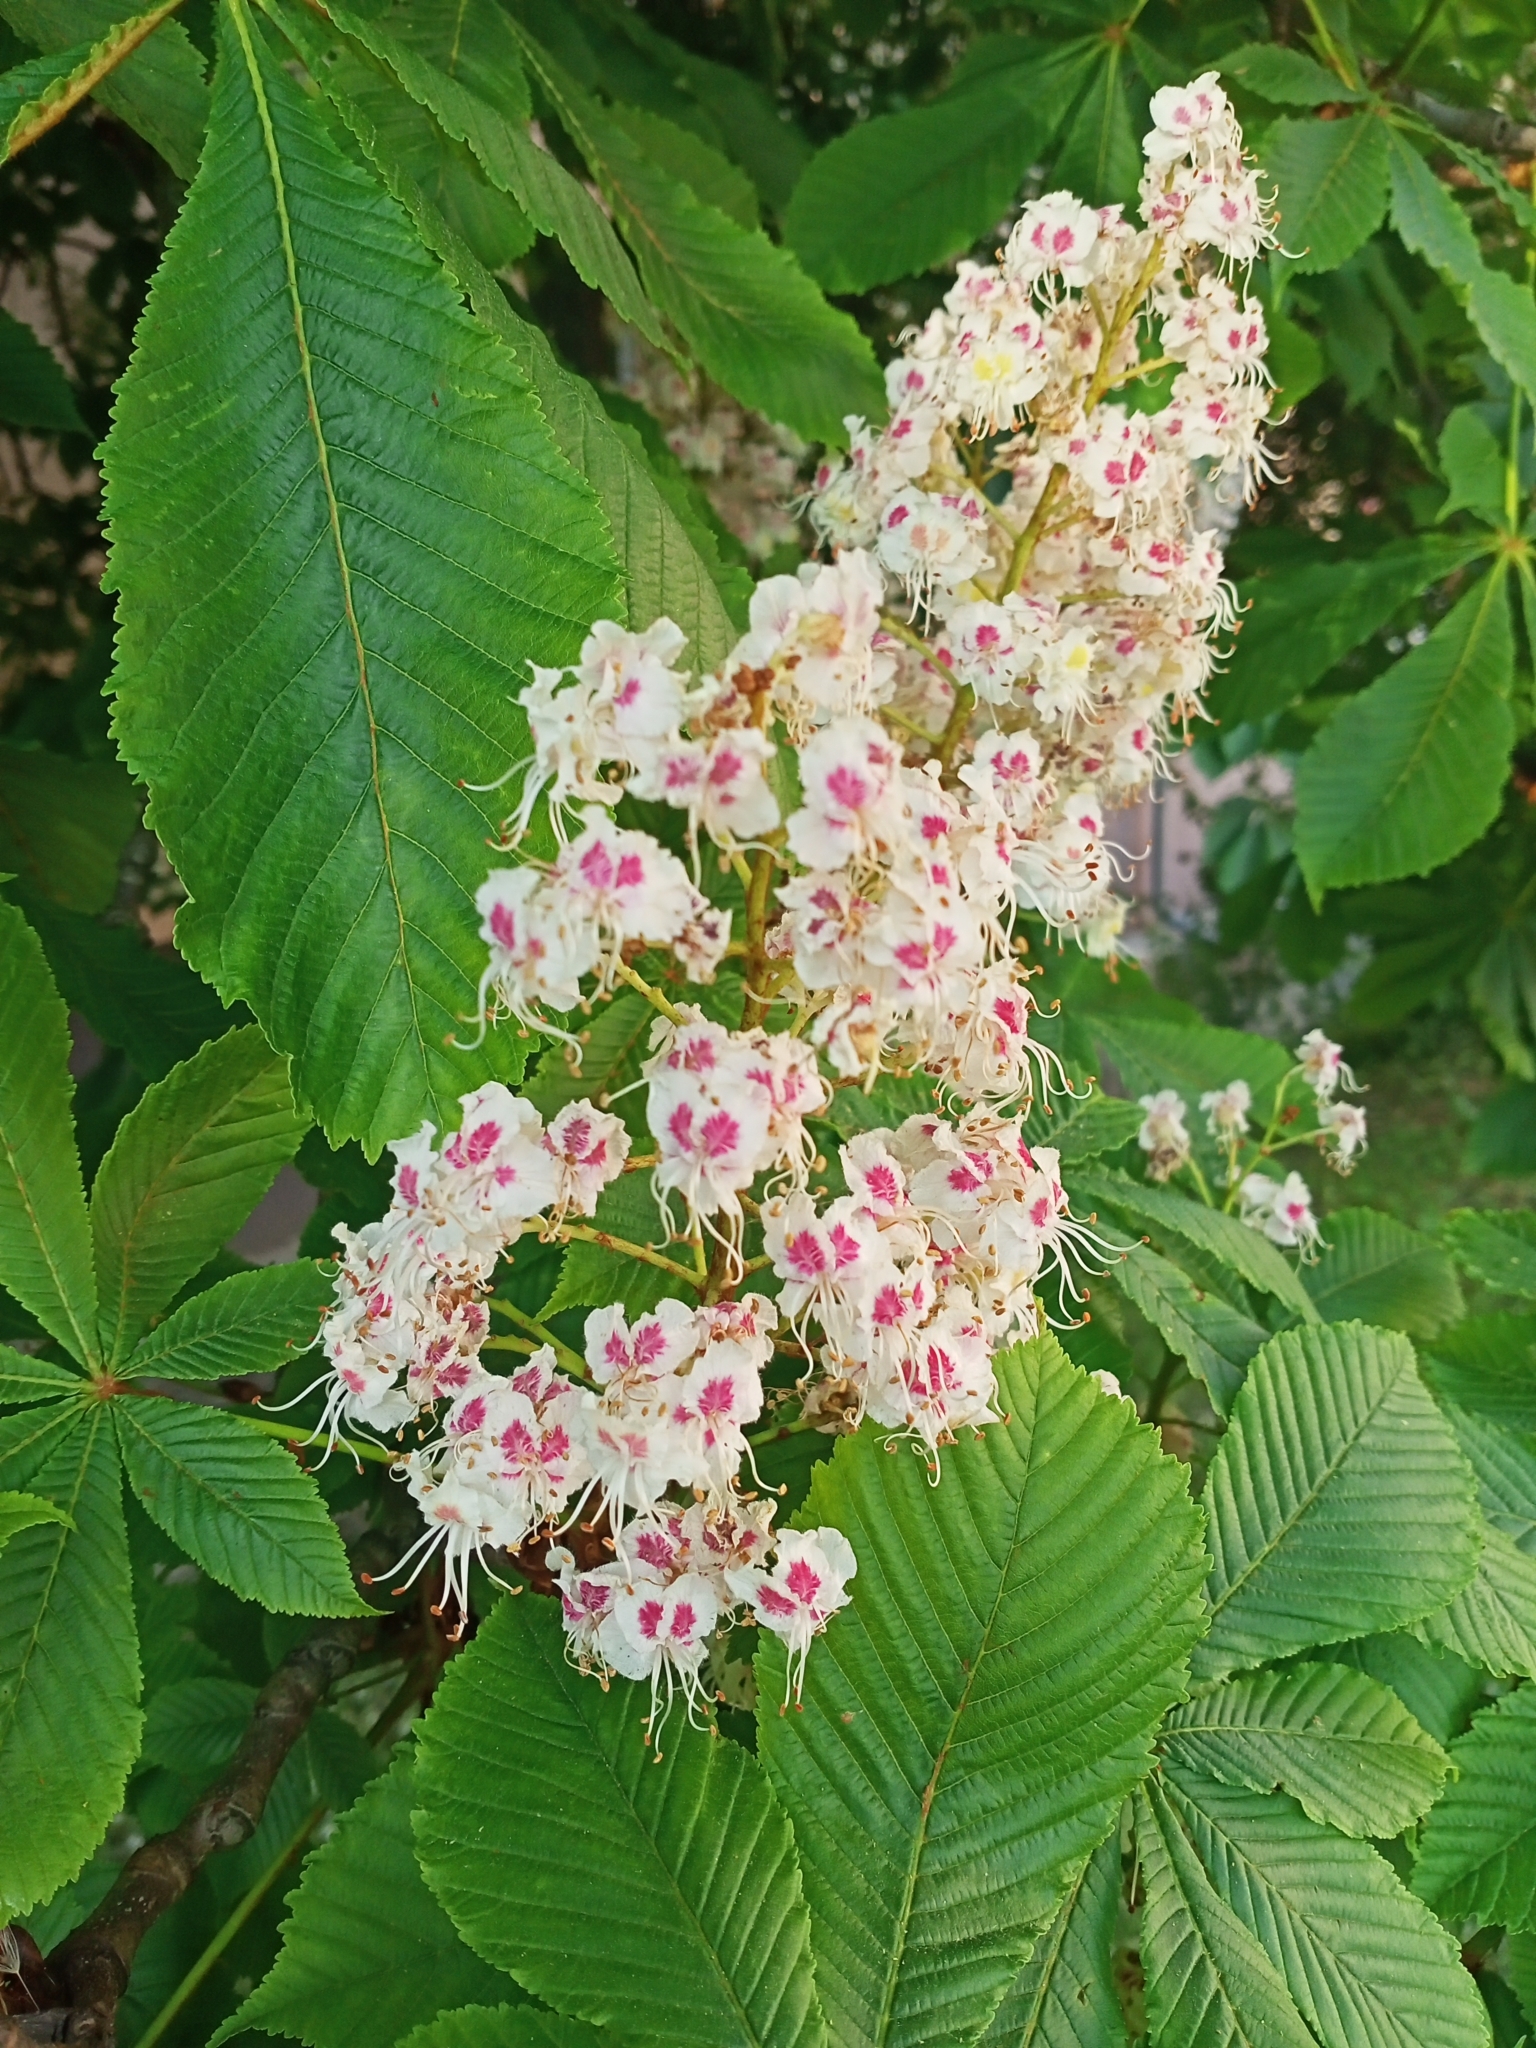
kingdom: Plantae
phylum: Tracheophyta
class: Magnoliopsida
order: Sapindales
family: Sapindaceae
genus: Aesculus
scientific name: Aesculus hippocastanum
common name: Horse-chestnut
